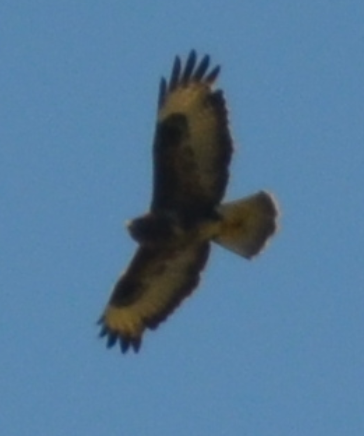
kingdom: Animalia
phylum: Chordata
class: Aves
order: Accipitriformes
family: Accipitridae
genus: Buteo
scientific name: Buteo buteo
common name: Common buzzard
